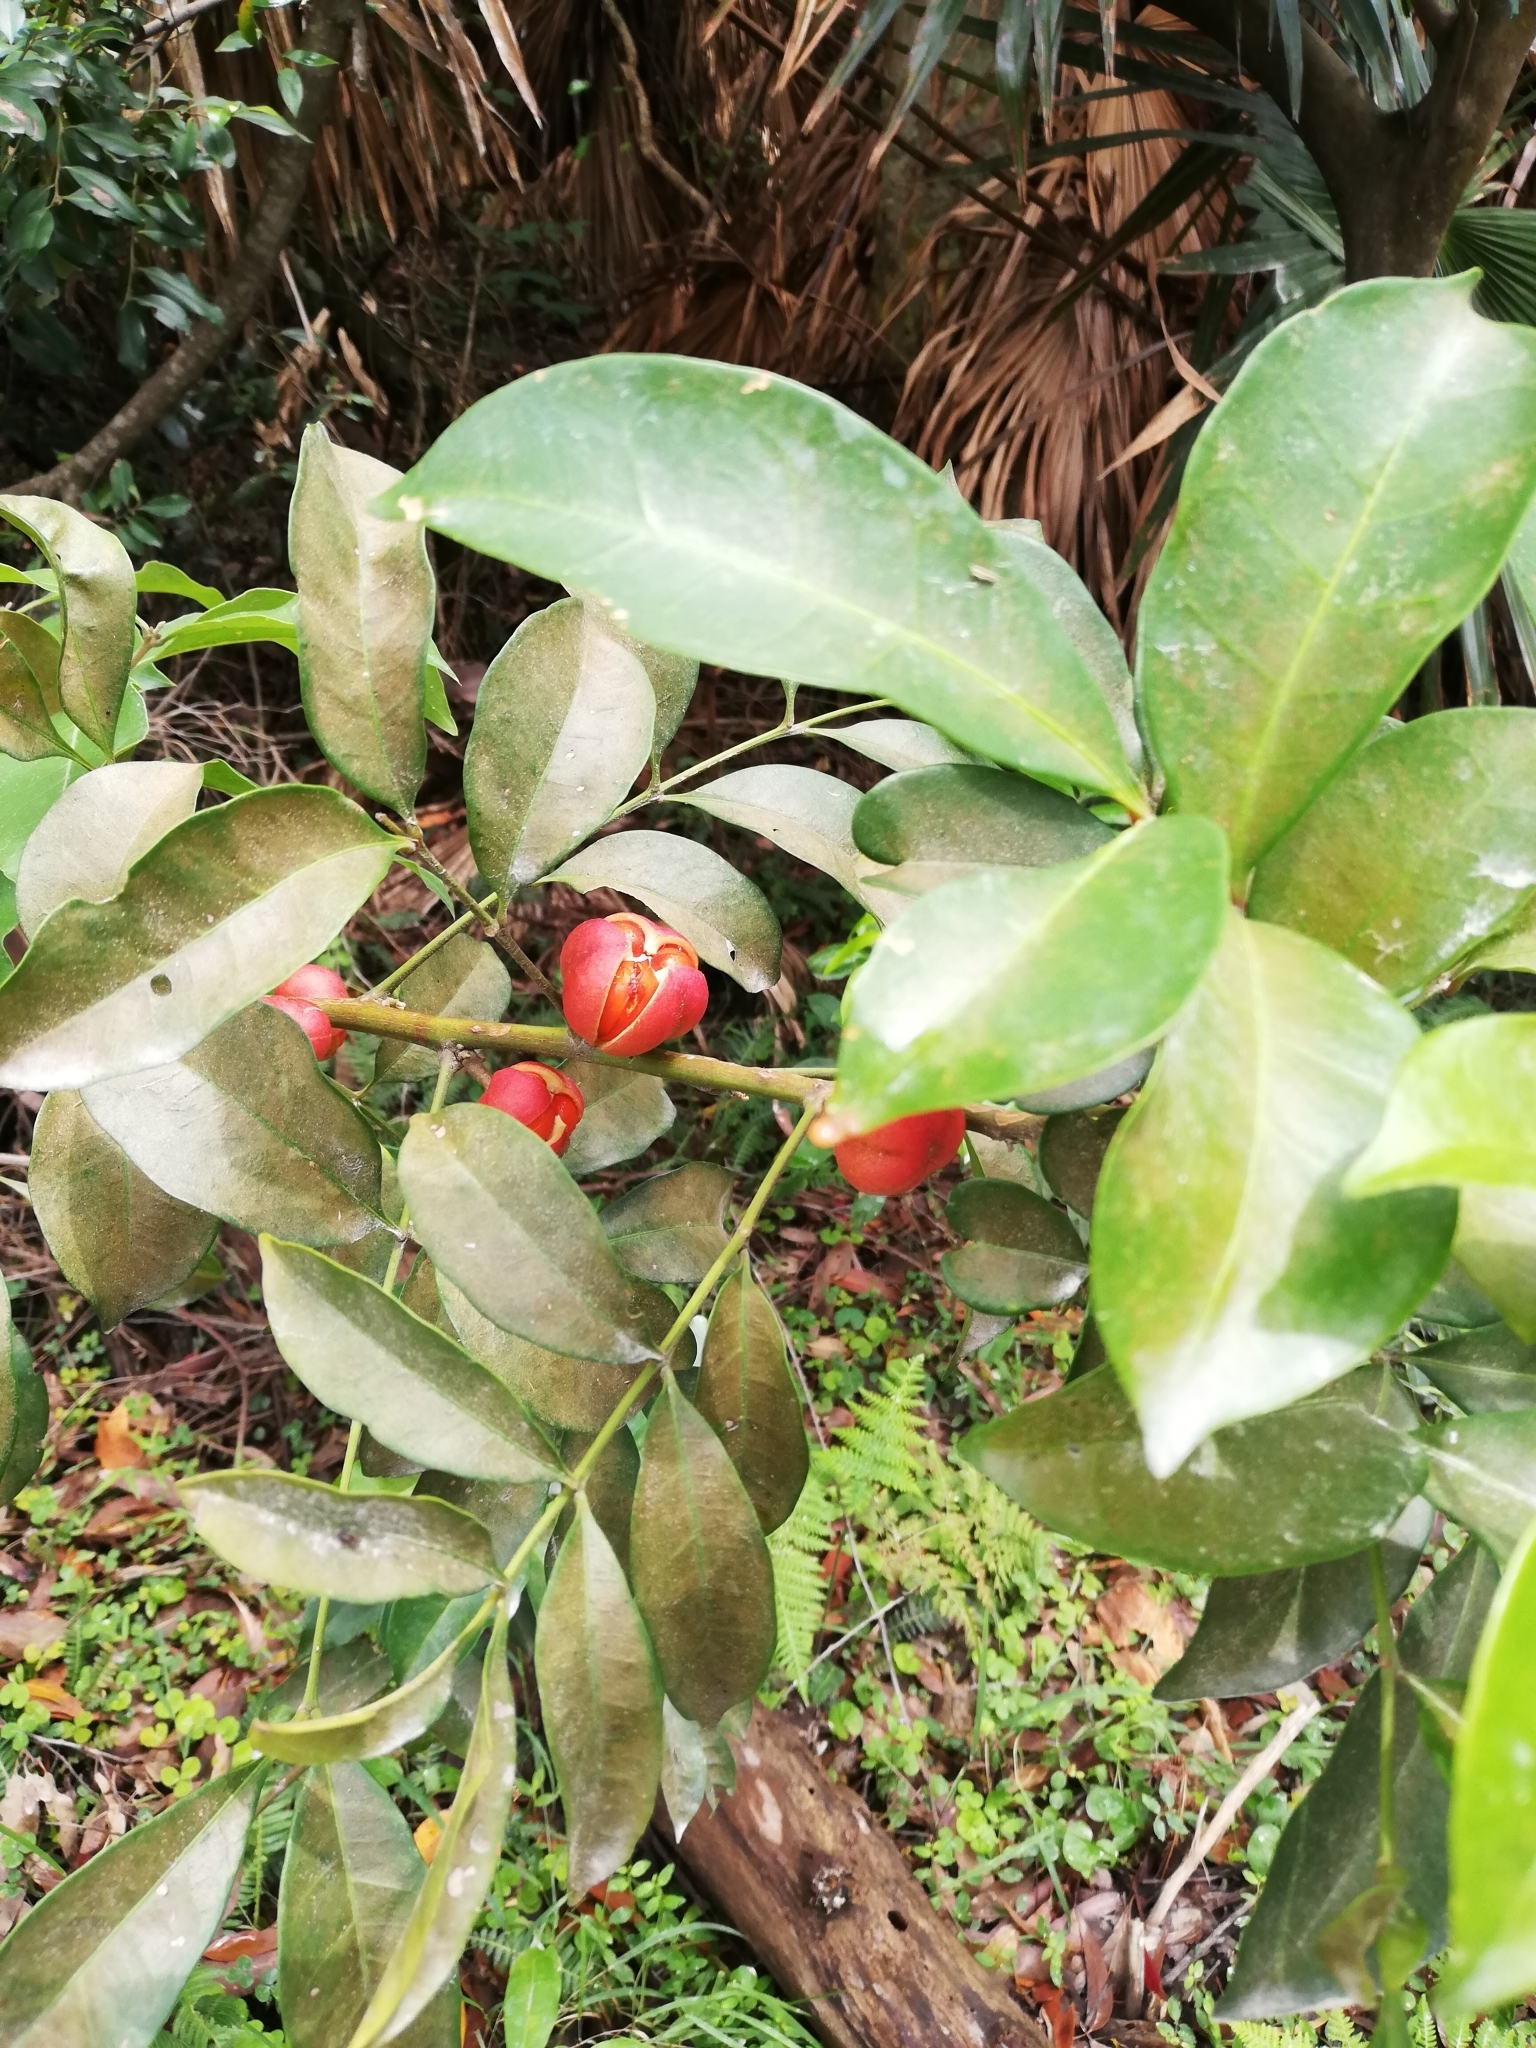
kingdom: Plantae
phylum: Tracheophyta
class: Magnoliopsida
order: Sapindales
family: Meliaceae
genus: Synoum
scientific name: Synoum glandulosum
